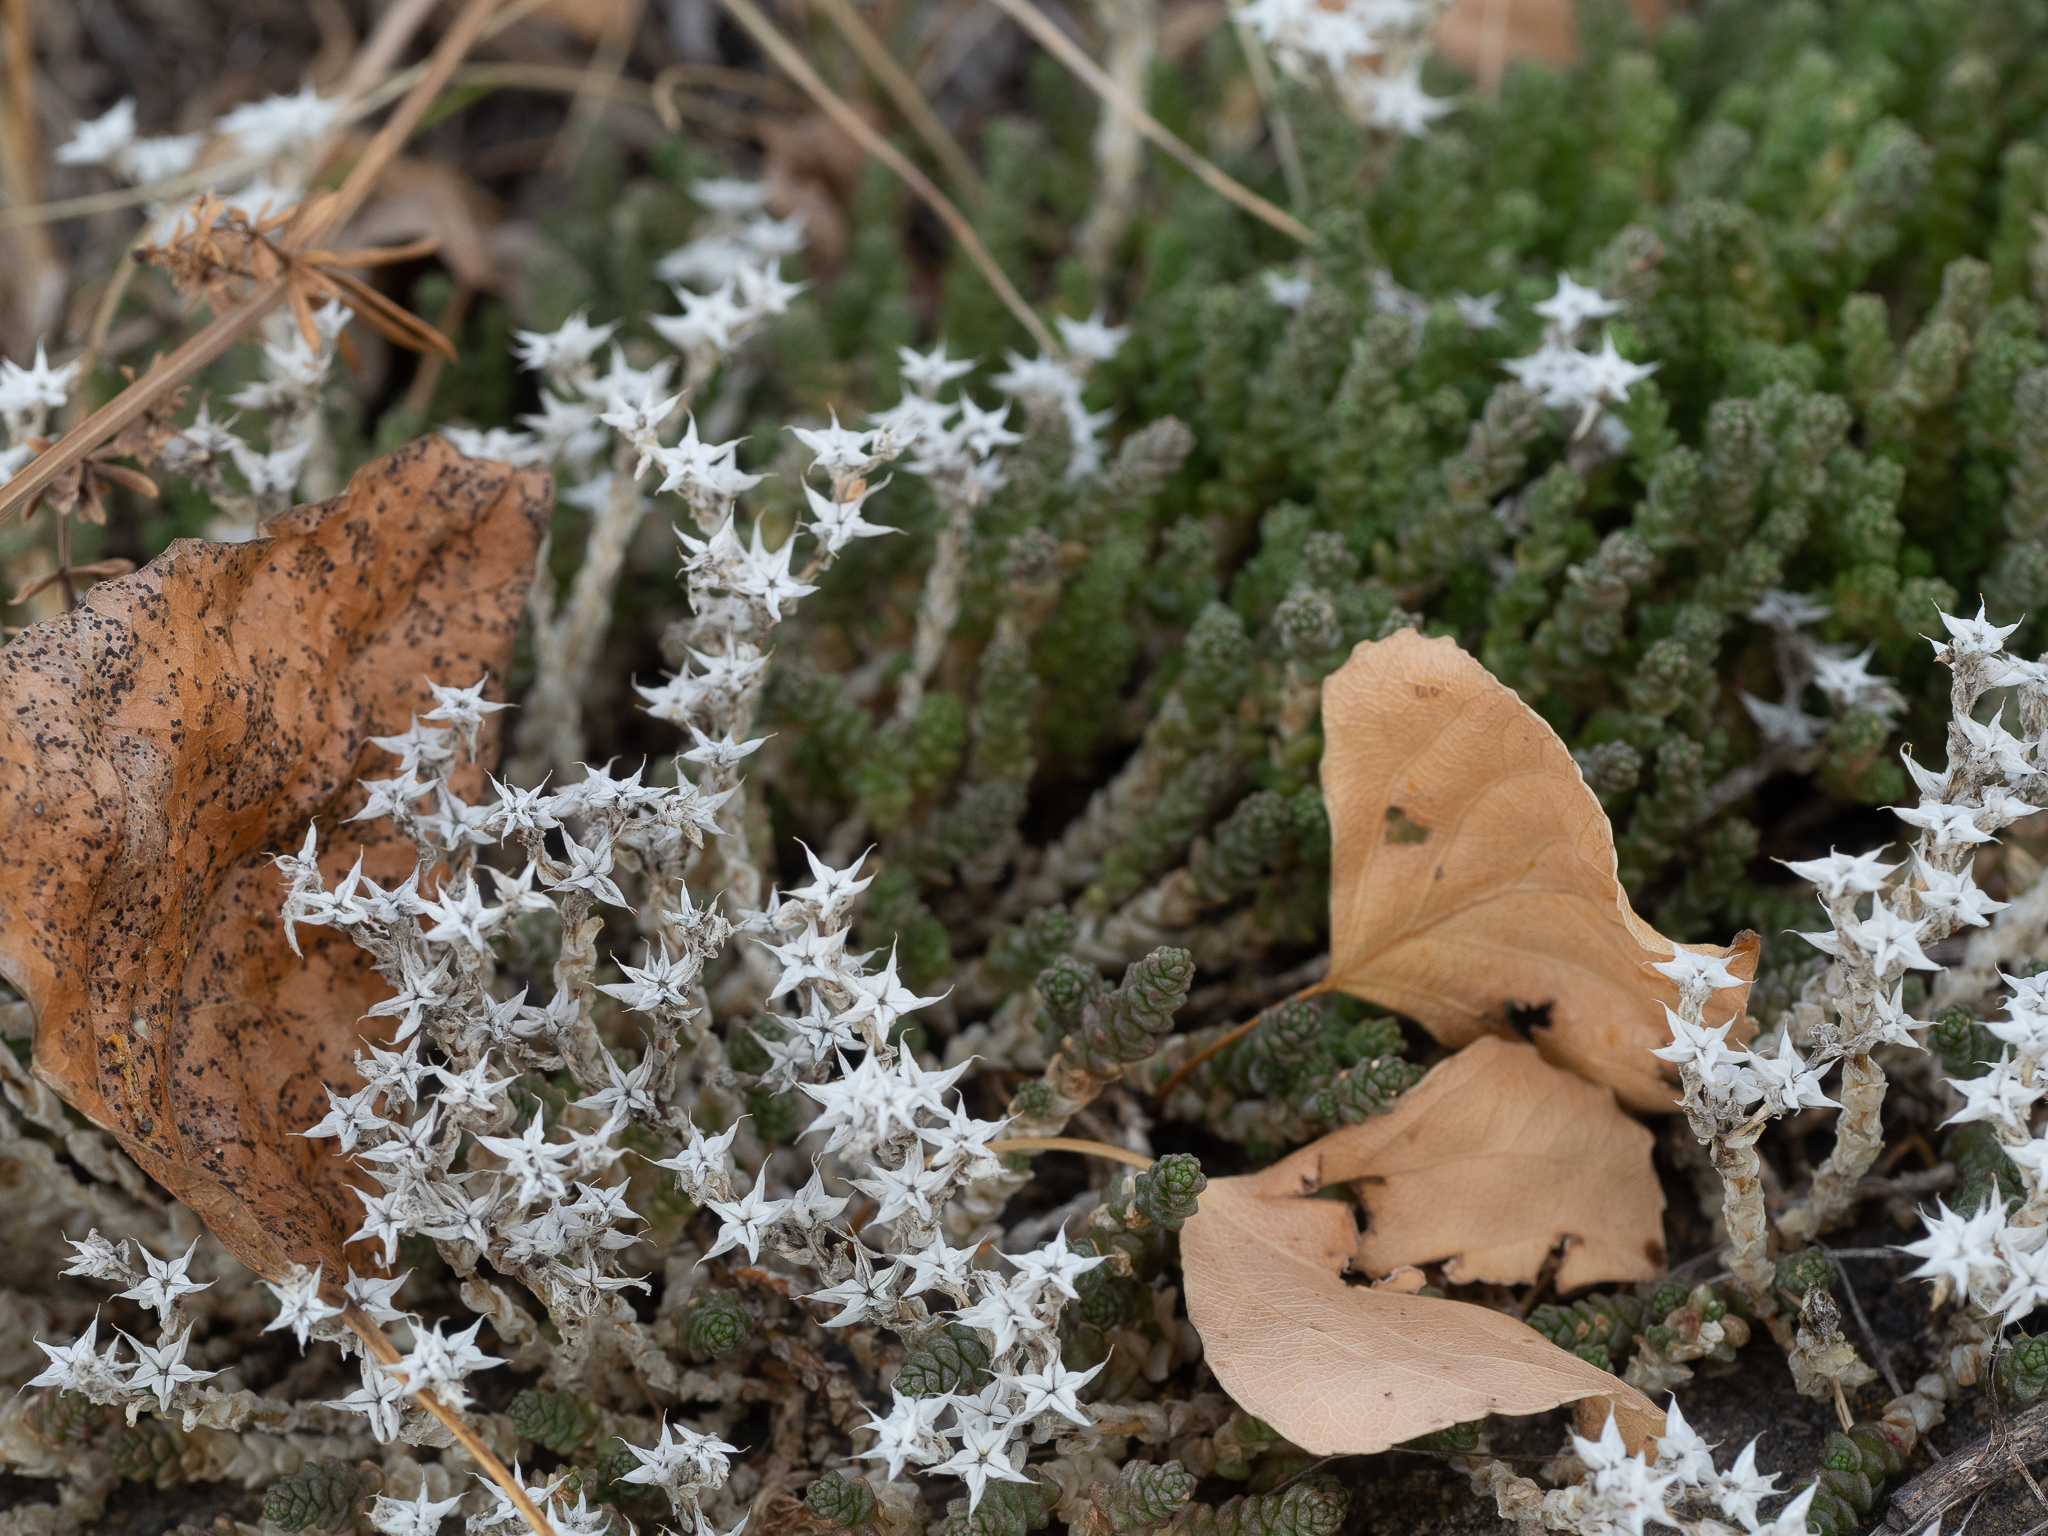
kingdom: Plantae
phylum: Tracheophyta
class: Magnoliopsida
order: Saxifragales
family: Crassulaceae
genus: Sedum
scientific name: Sedum acre
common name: Biting stonecrop
